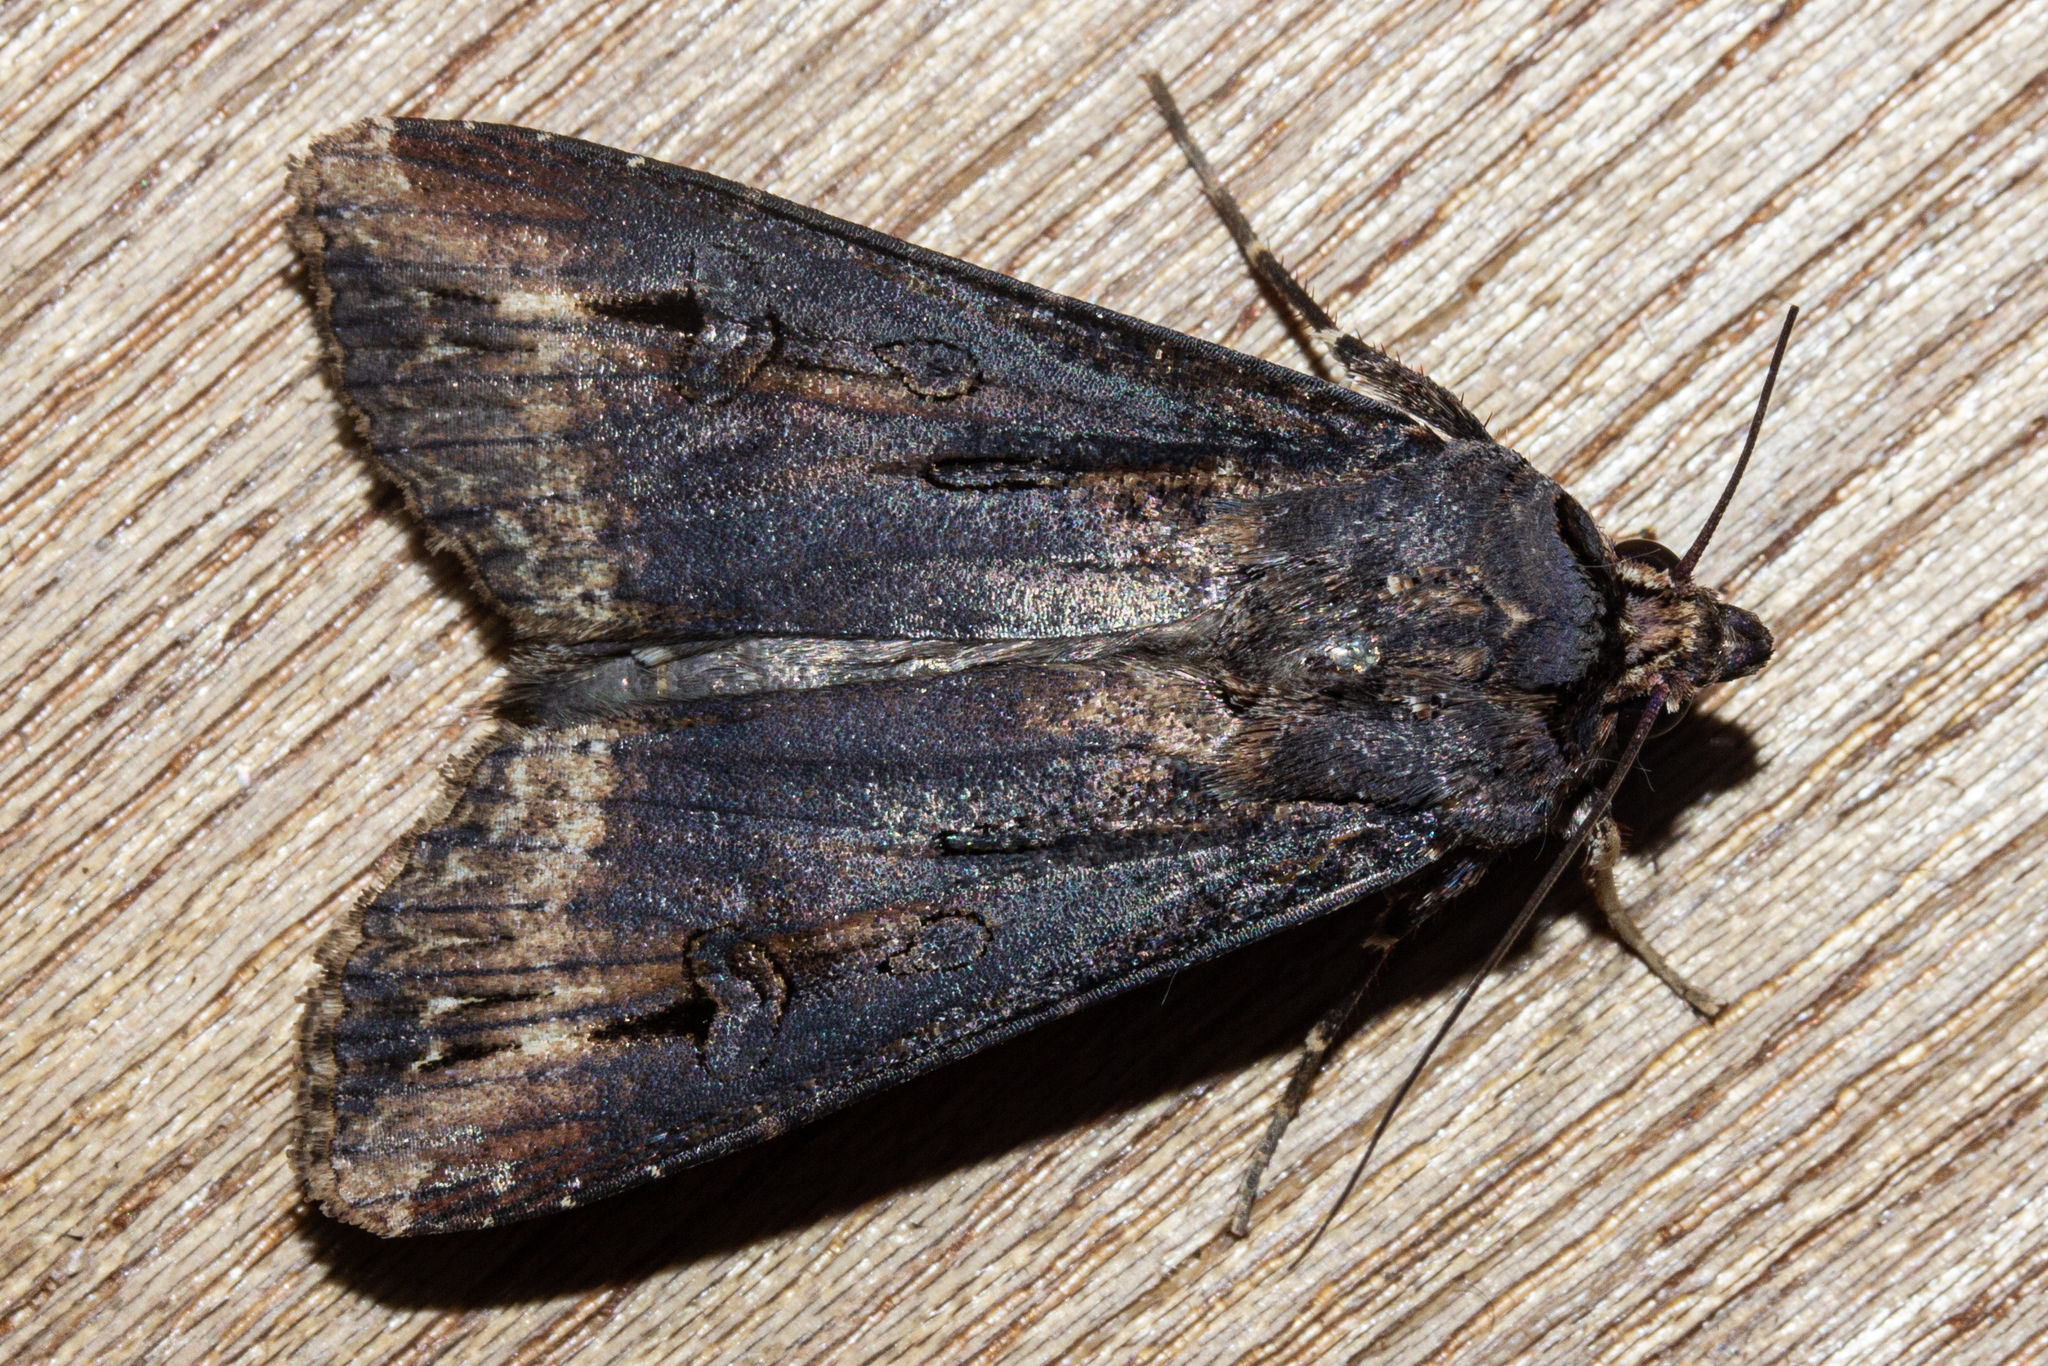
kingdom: Animalia
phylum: Arthropoda
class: Insecta
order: Lepidoptera
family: Noctuidae
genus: Agrotis
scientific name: Agrotis ipsilon
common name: Dark sword-grass
